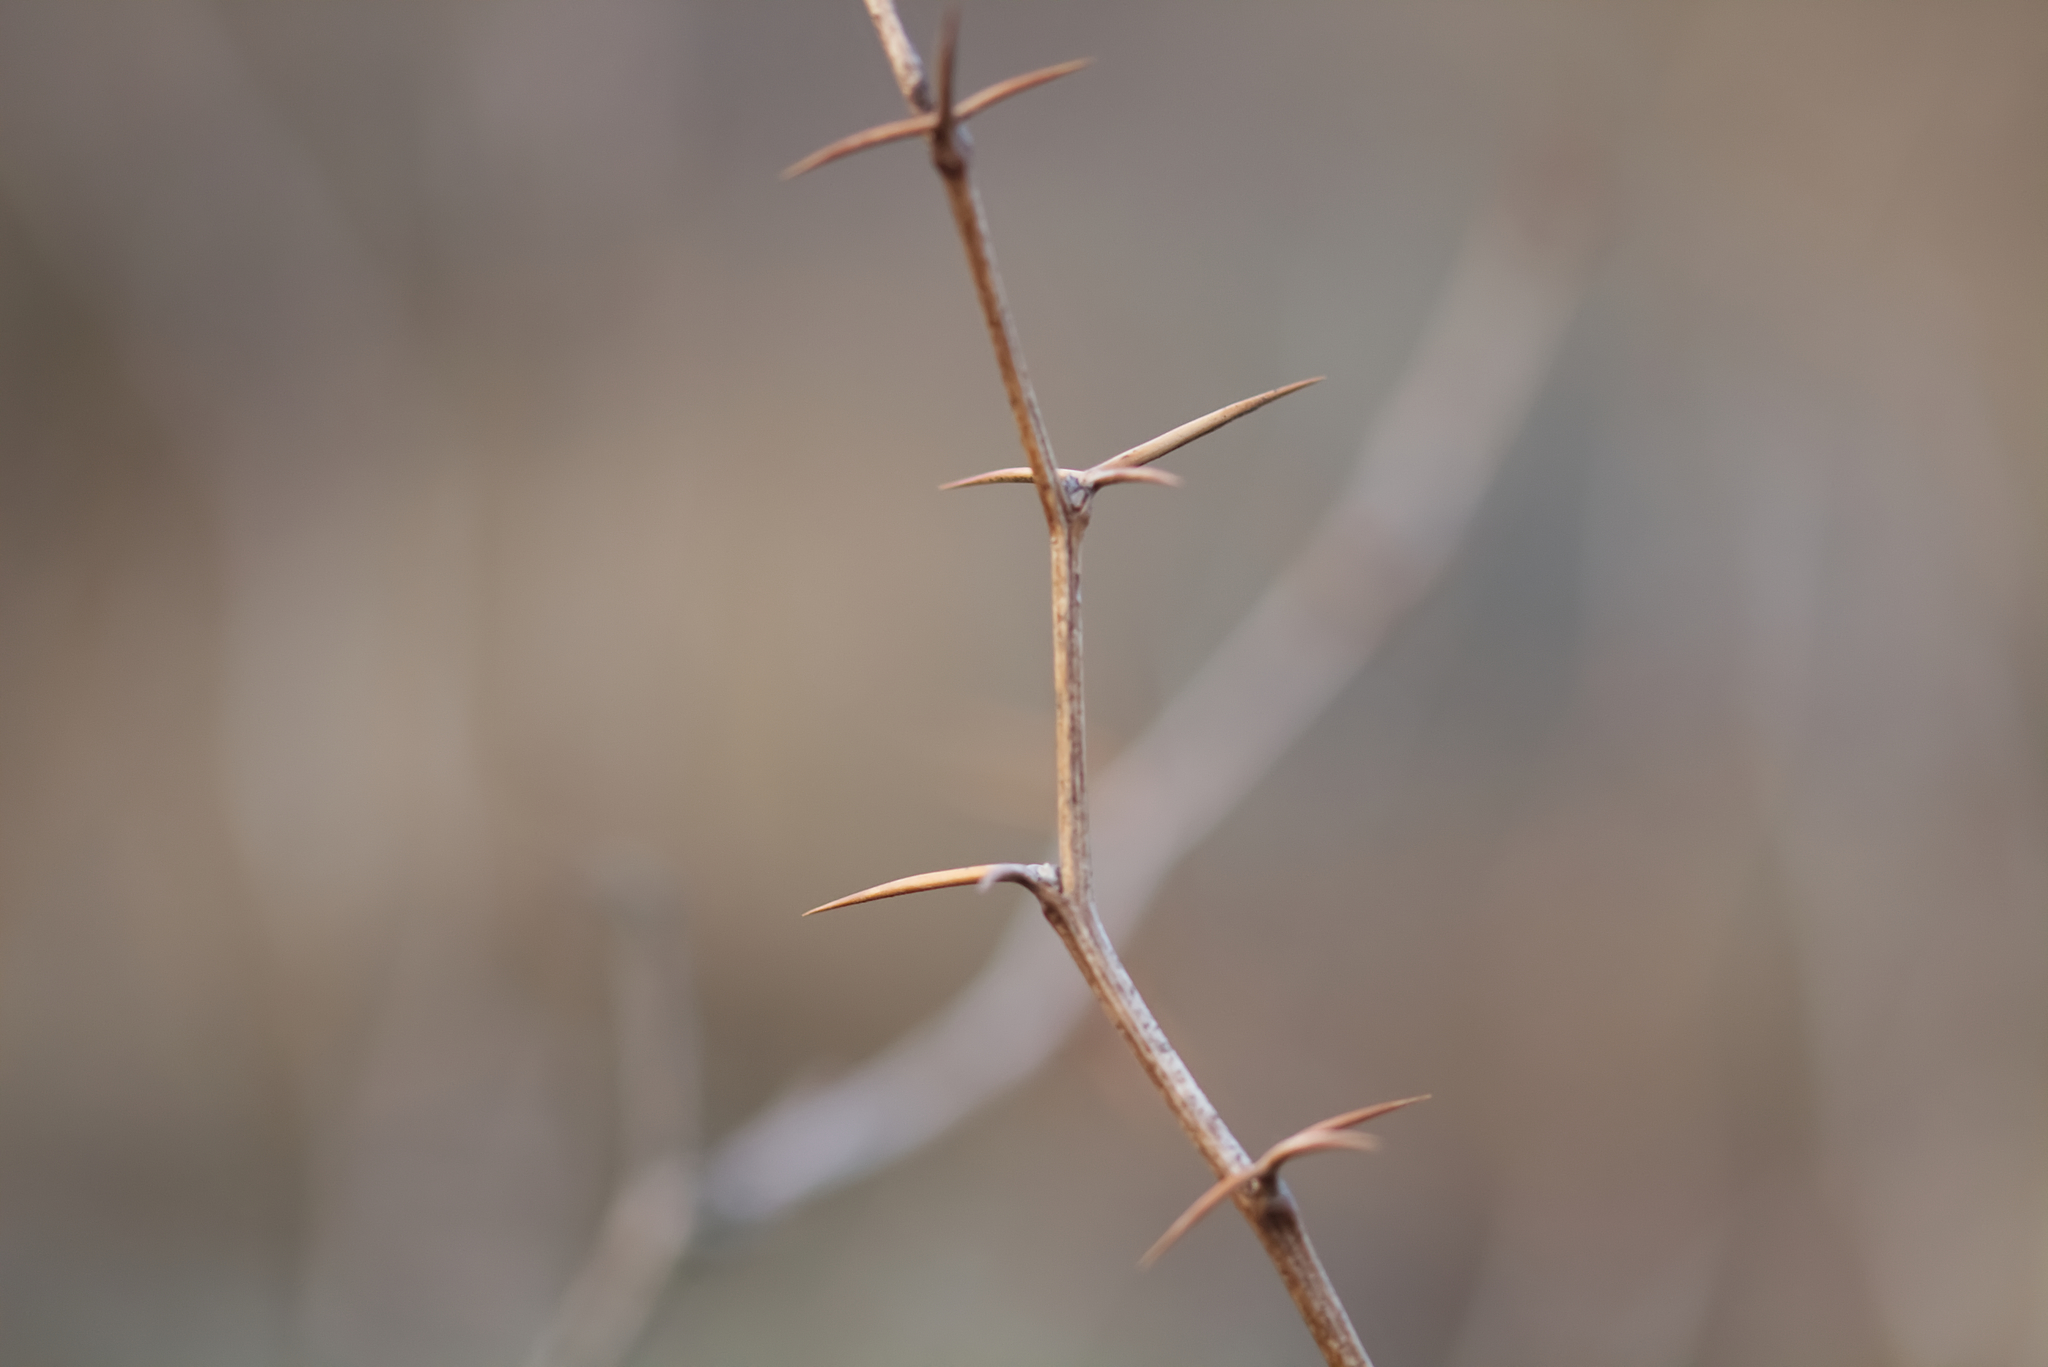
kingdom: Plantae
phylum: Tracheophyta
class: Magnoliopsida
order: Ranunculales
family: Berberidaceae
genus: Berberis
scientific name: Berberis vulgaris
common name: Barberry
